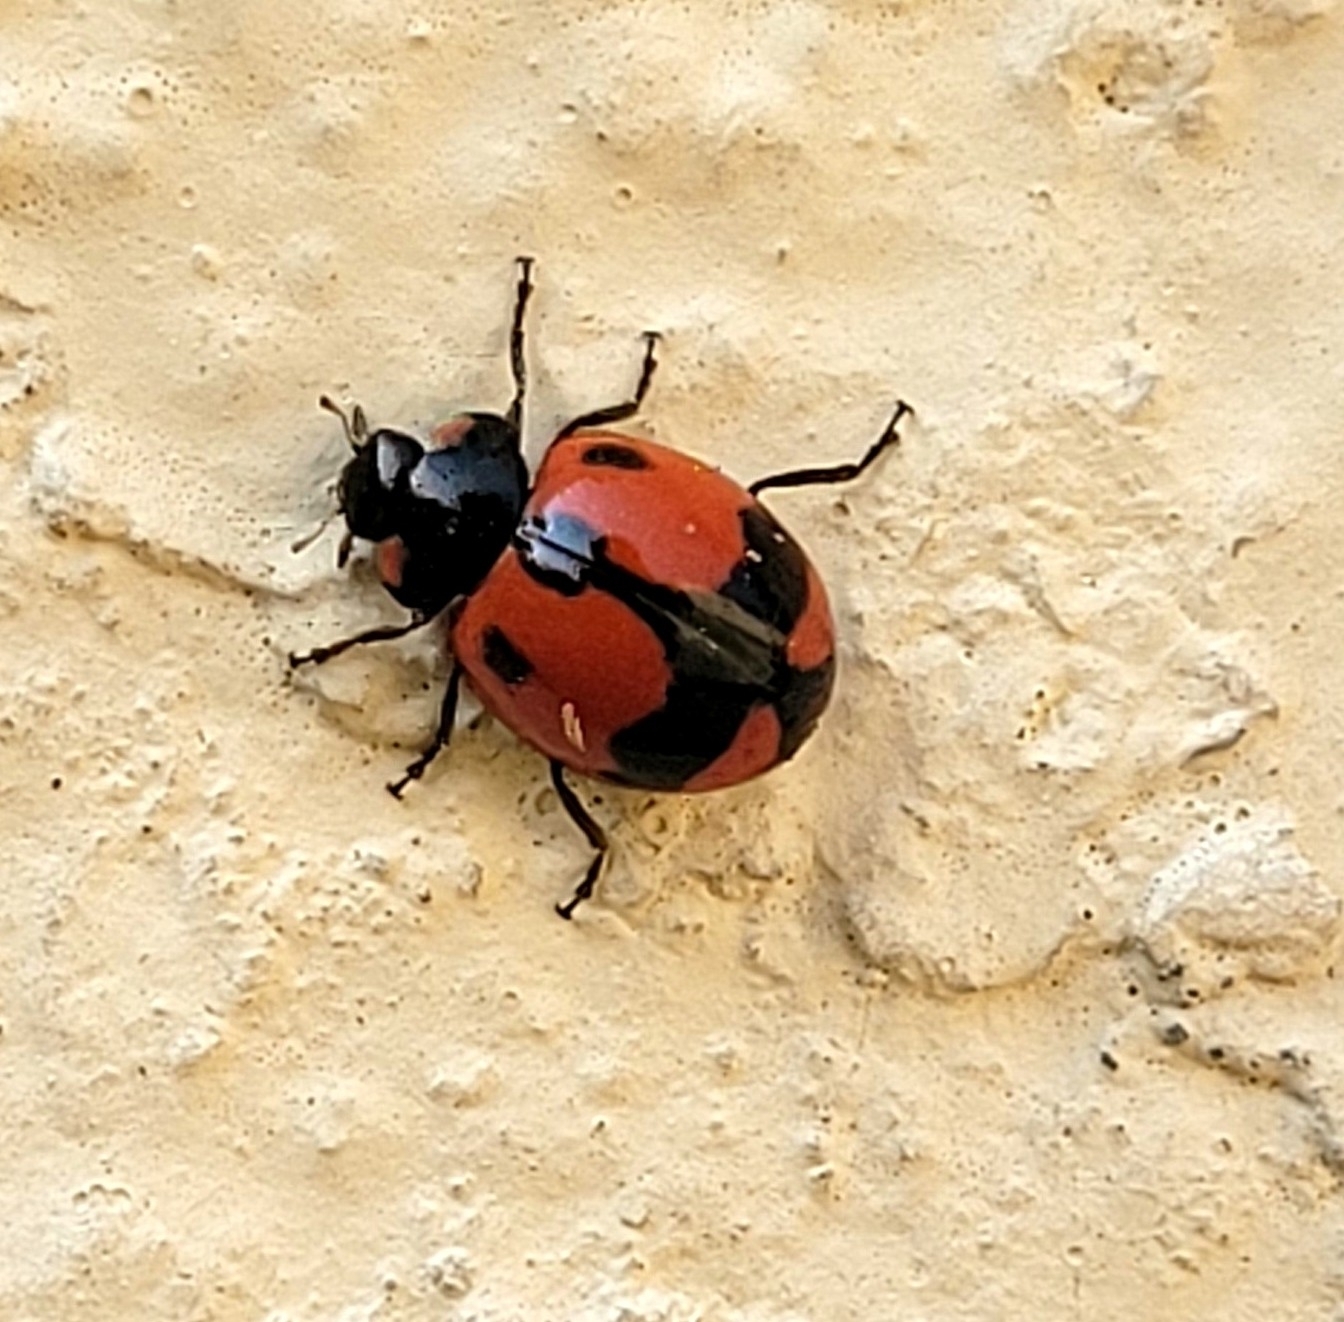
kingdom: Animalia
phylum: Arthropoda
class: Insecta
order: Coleoptera
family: Coccinellidae
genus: Coccinella
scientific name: Coccinella transversalis
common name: Transverse lady beetle
